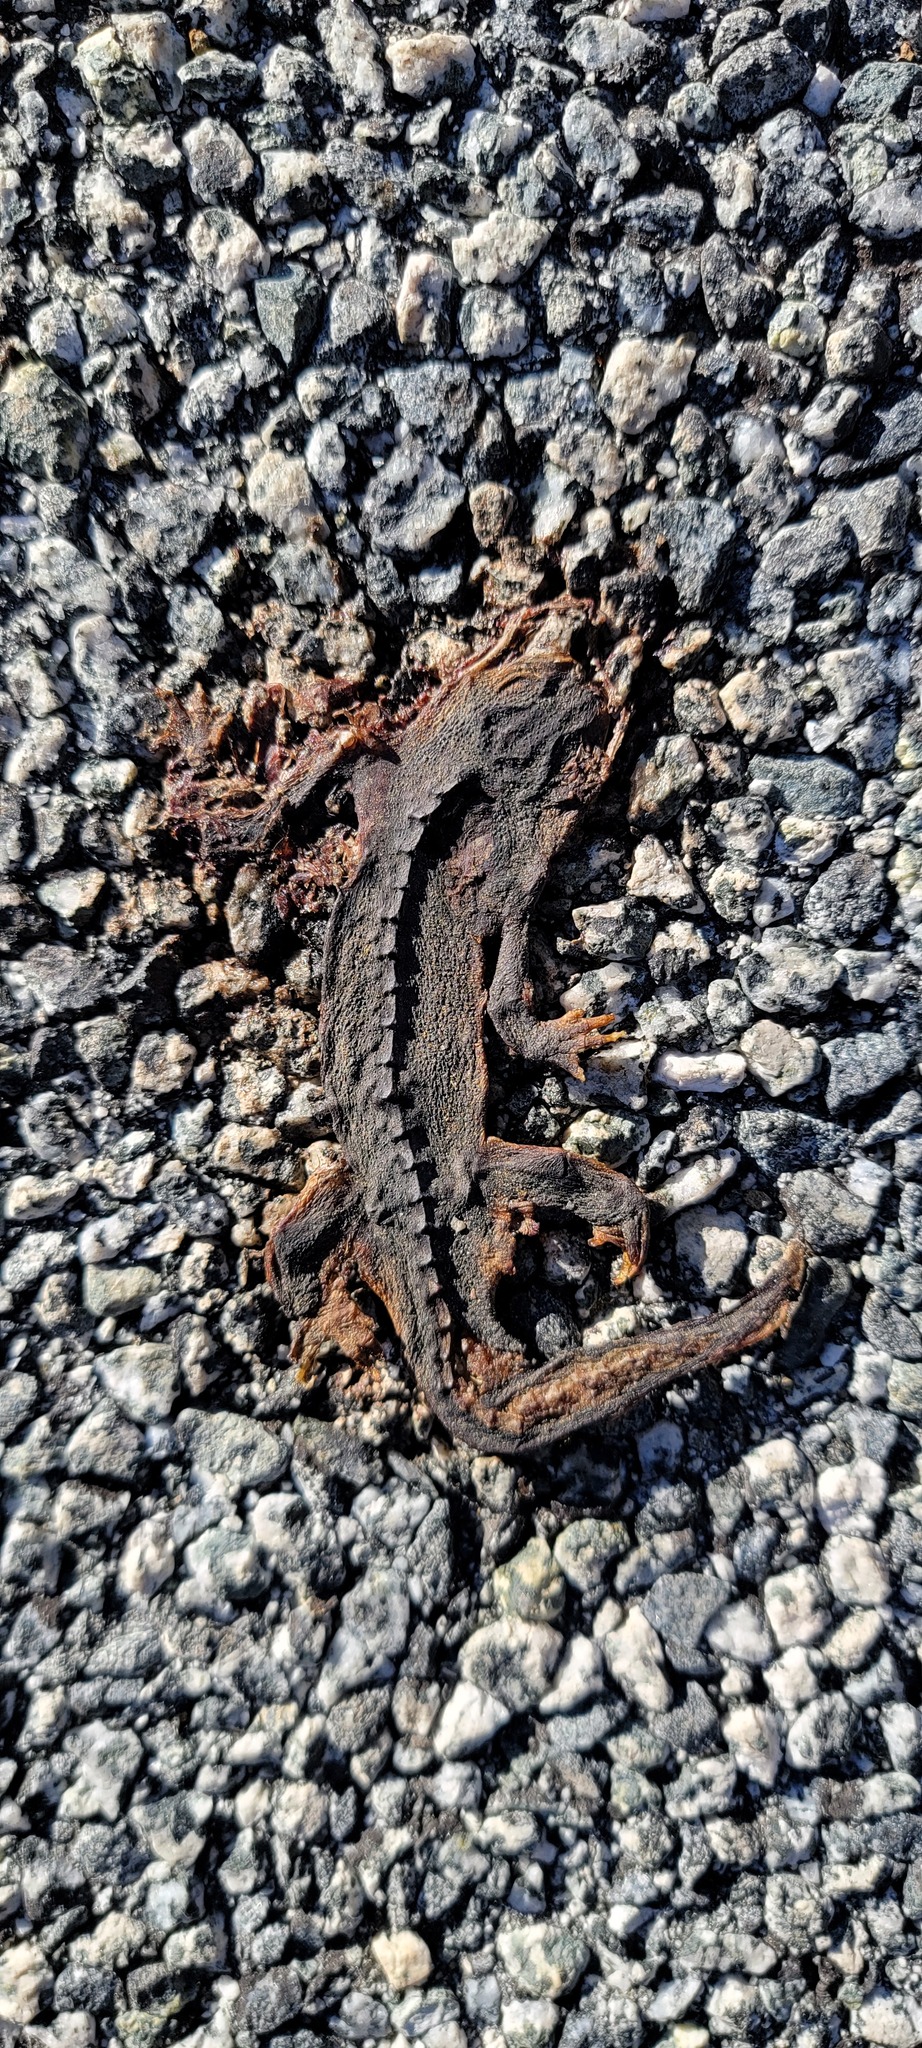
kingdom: Animalia
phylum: Chordata
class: Amphibia
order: Caudata
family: Salamandridae
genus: Taricha
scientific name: Taricha
